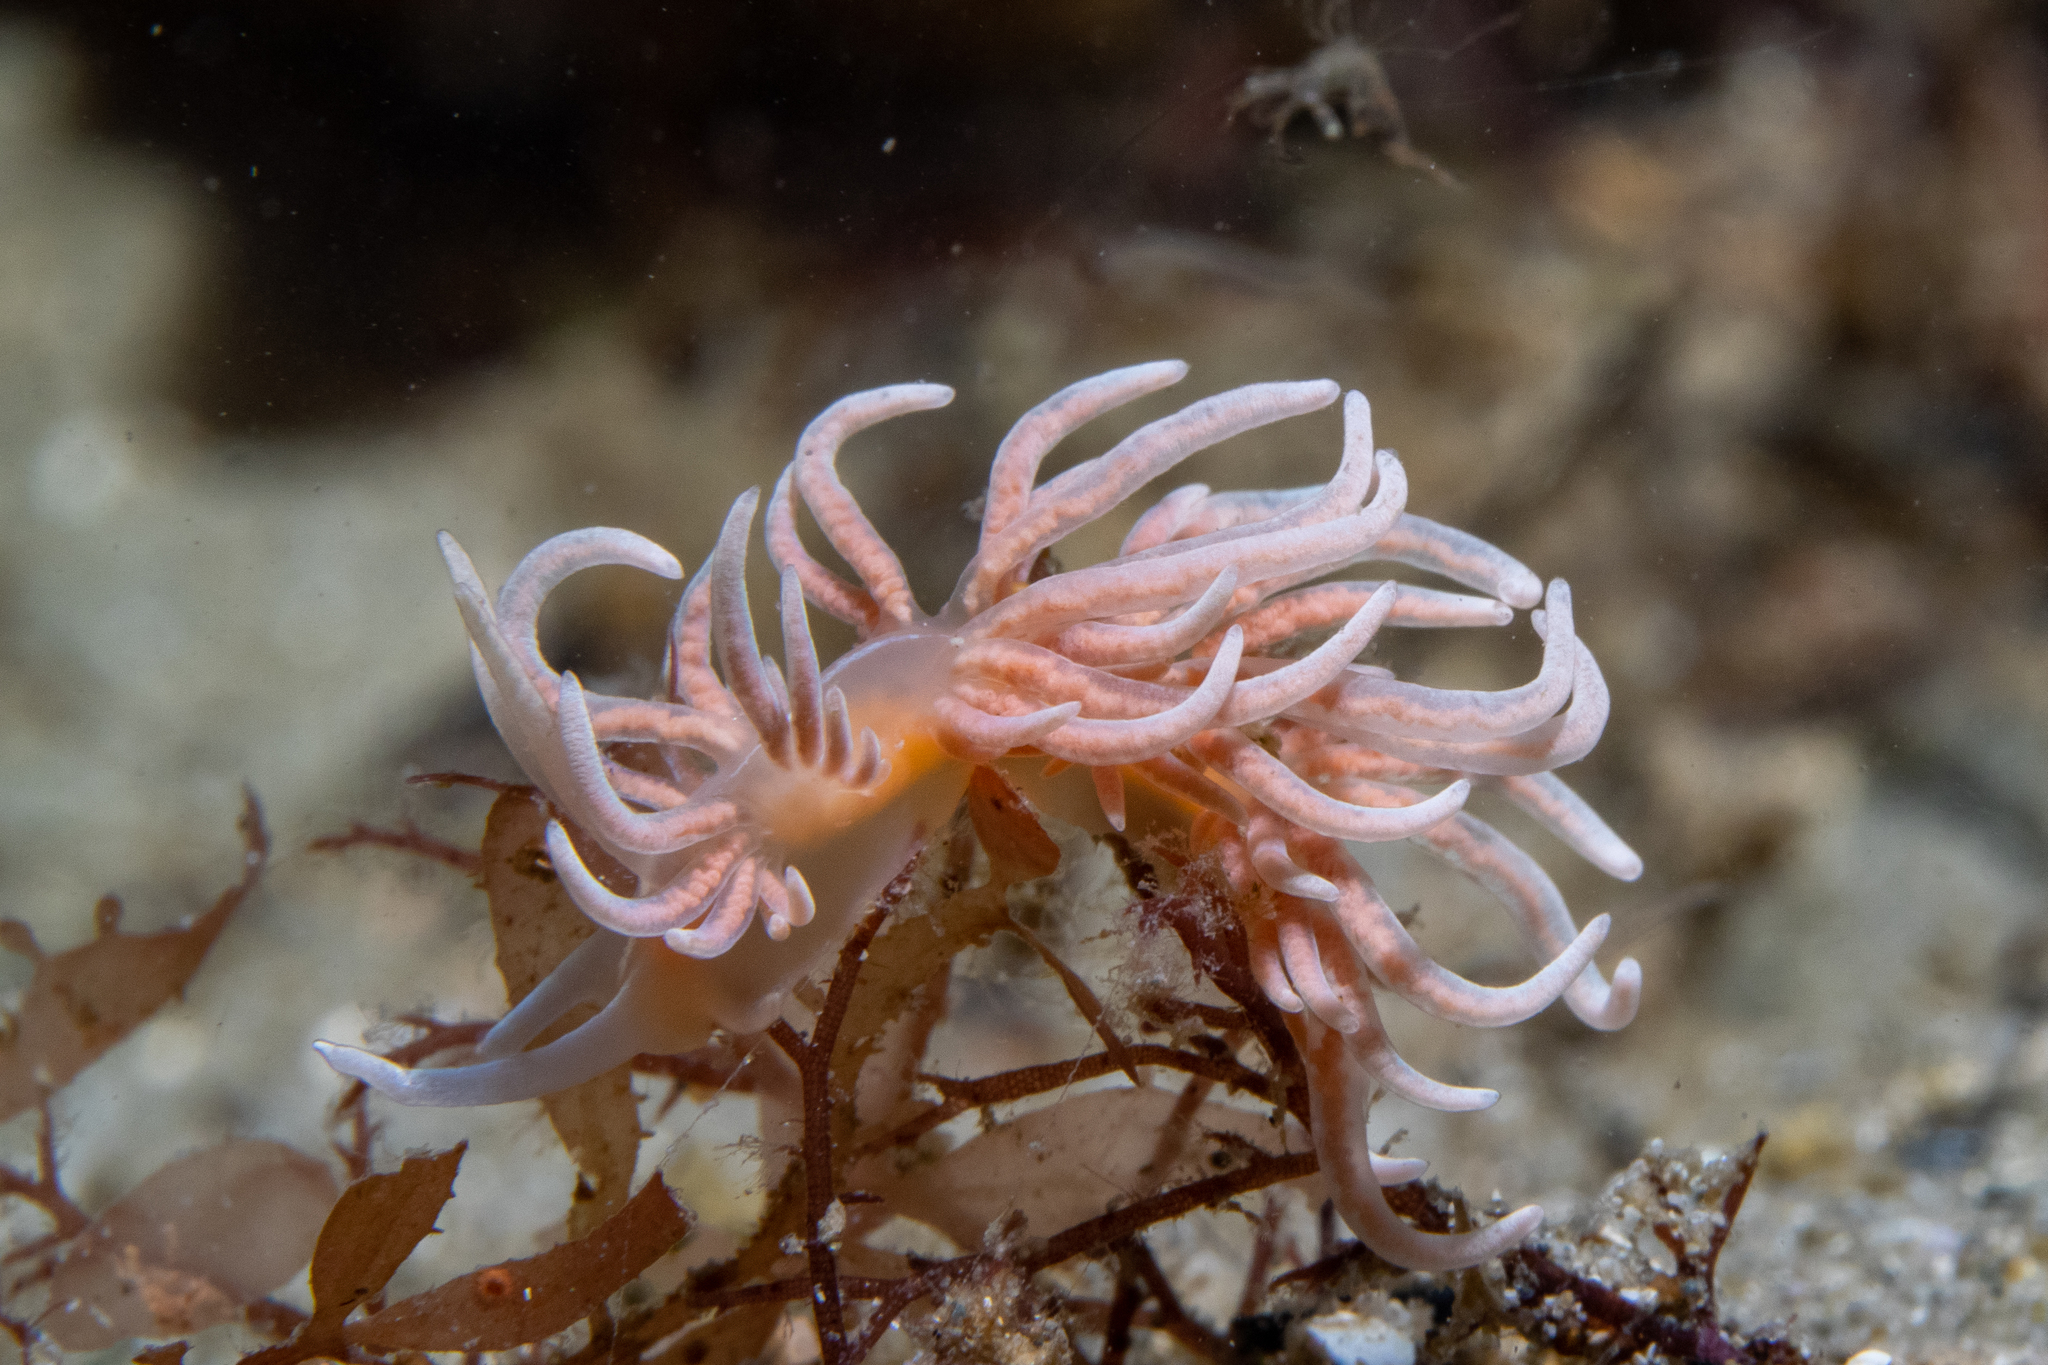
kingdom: Animalia
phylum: Mollusca
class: Gastropoda
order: Nudibranchia
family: Myrrhinidae
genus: Phyllodesmium
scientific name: Phyllodesmium serratum
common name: Coral nudibranch
